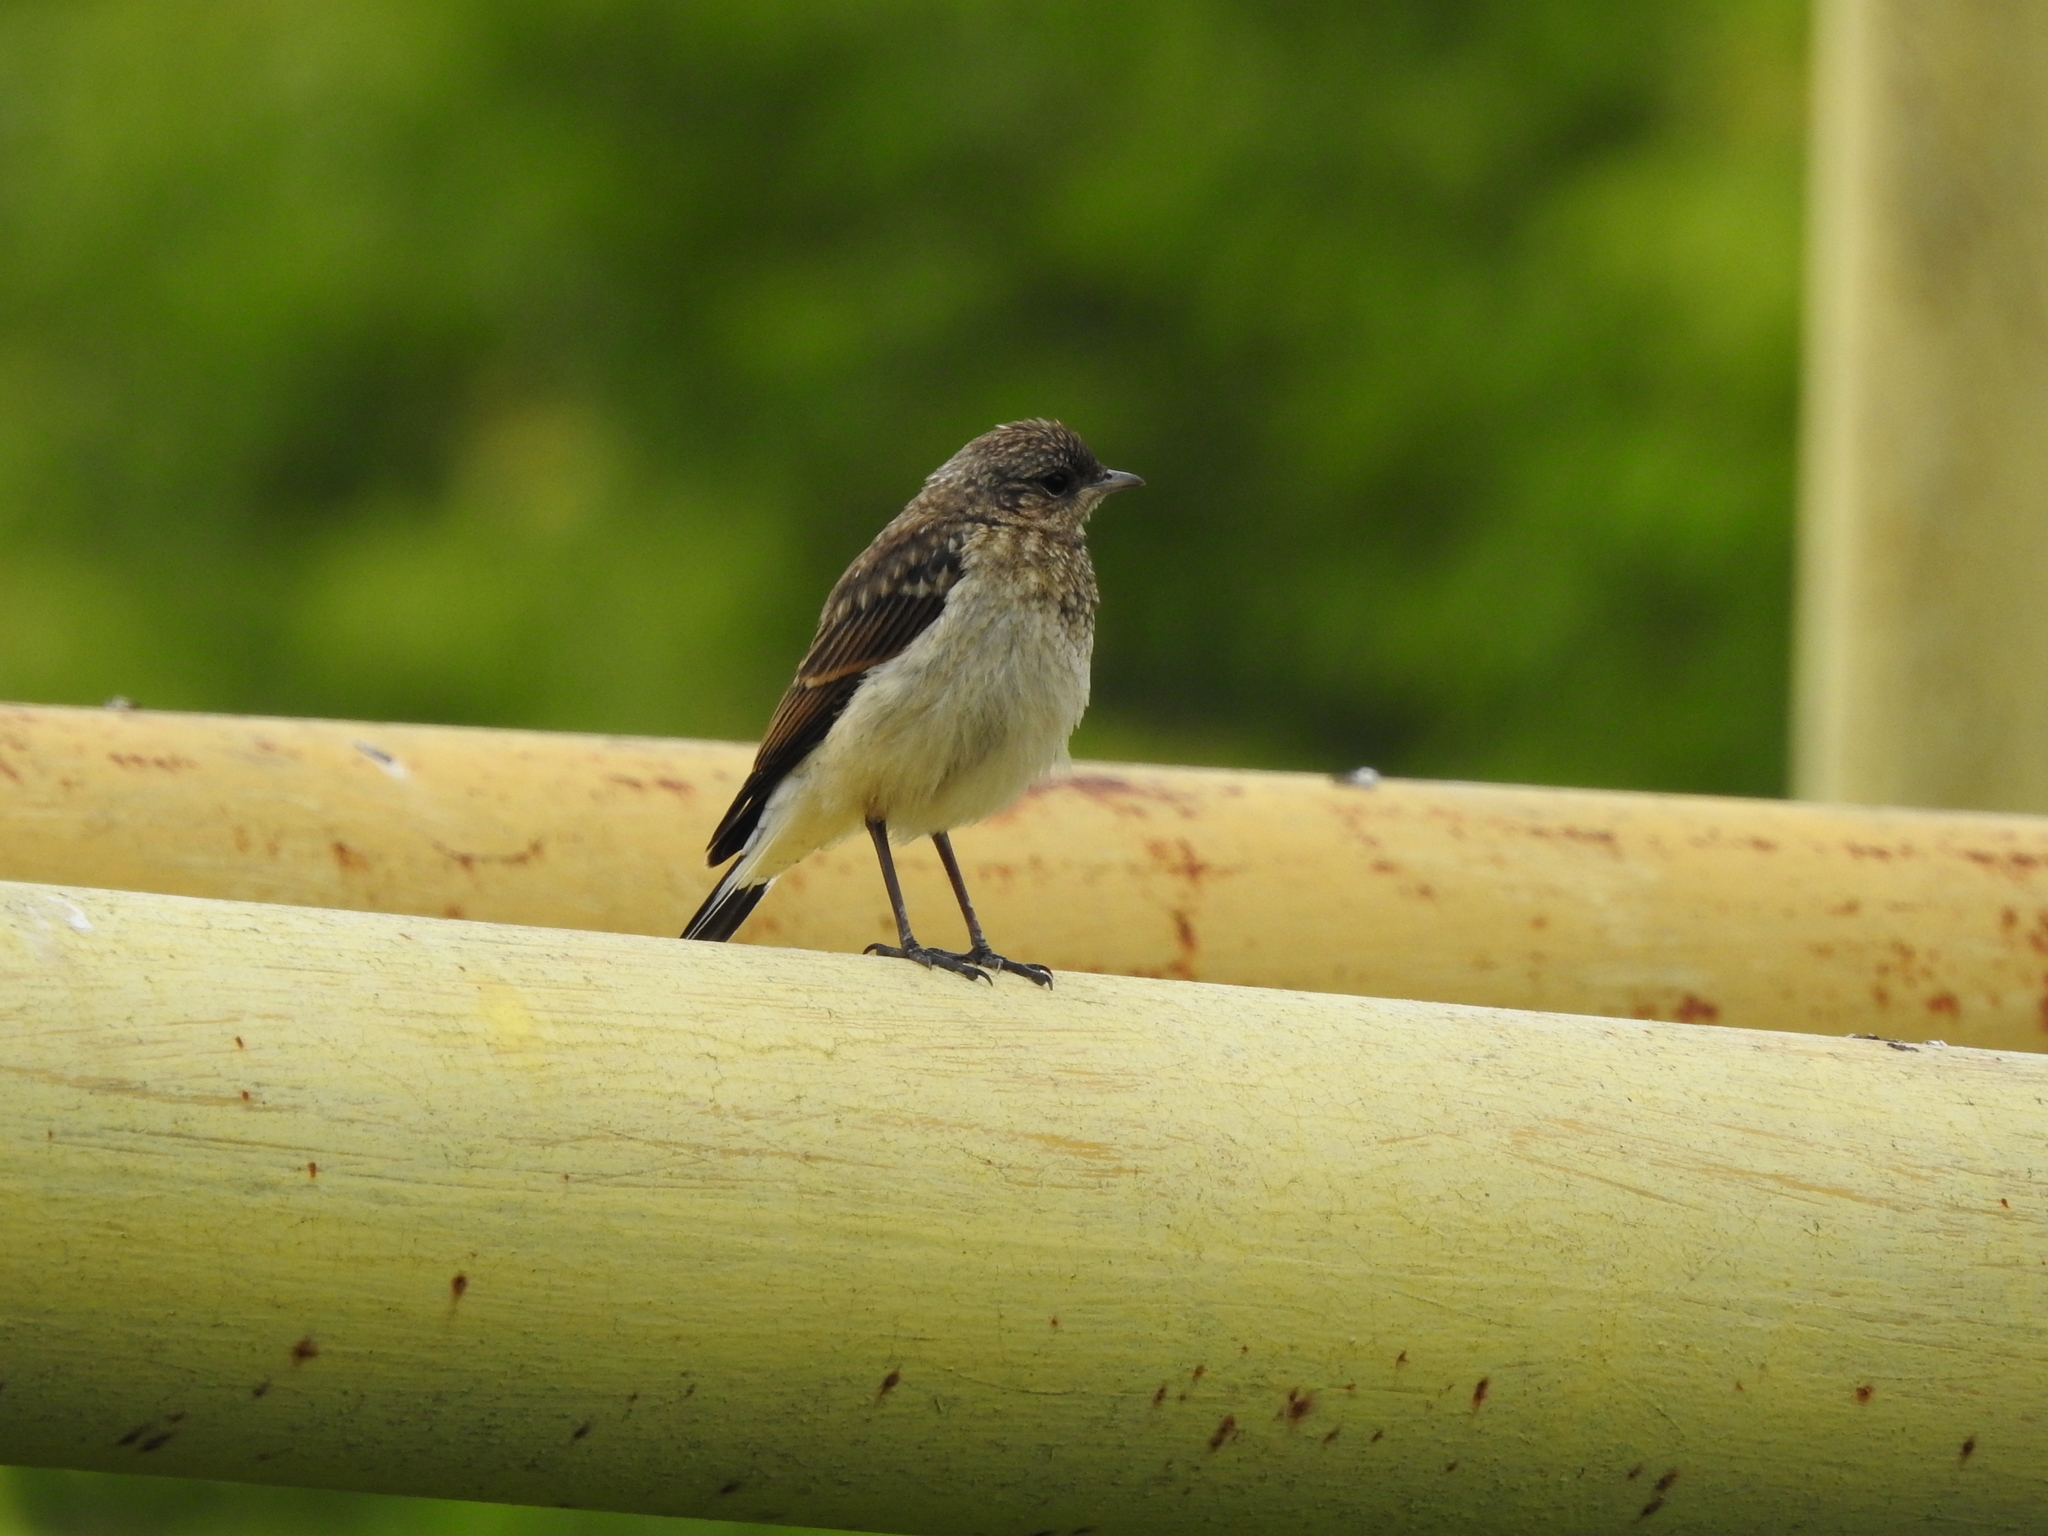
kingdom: Animalia
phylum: Chordata
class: Aves
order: Passeriformes
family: Muscicapidae
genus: Oenanthe
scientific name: Oenanthe oenanthe
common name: Northern wheatear
